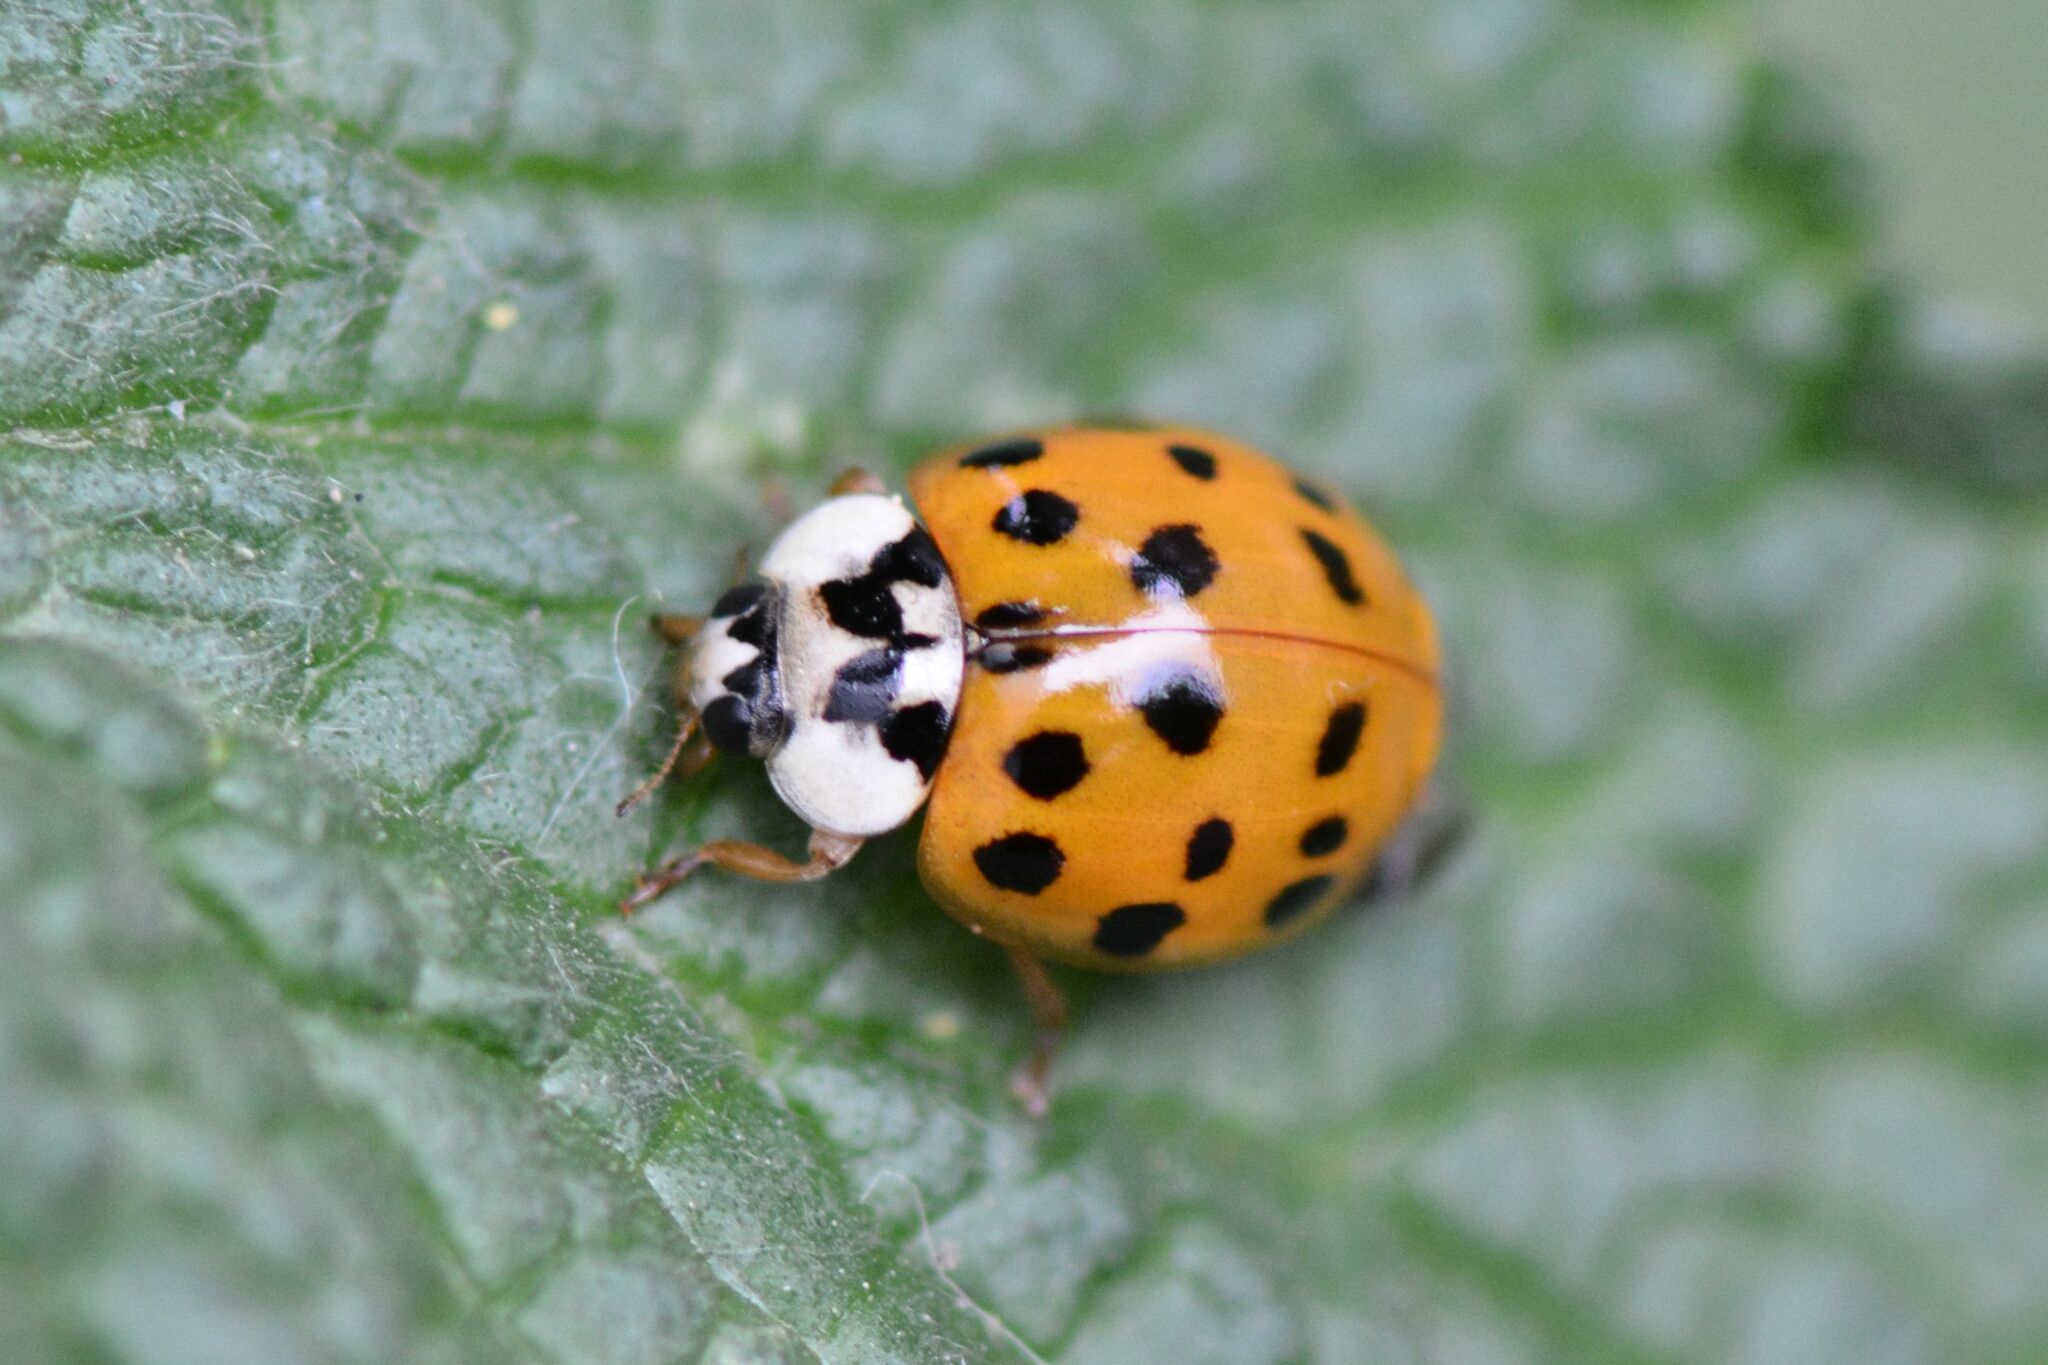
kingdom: Animalia
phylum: Arthropoda
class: Insecta
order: Coleoptera
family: Coccinellidae
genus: Harmonia
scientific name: Harmonia axyridis
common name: Harlequin ladybird
